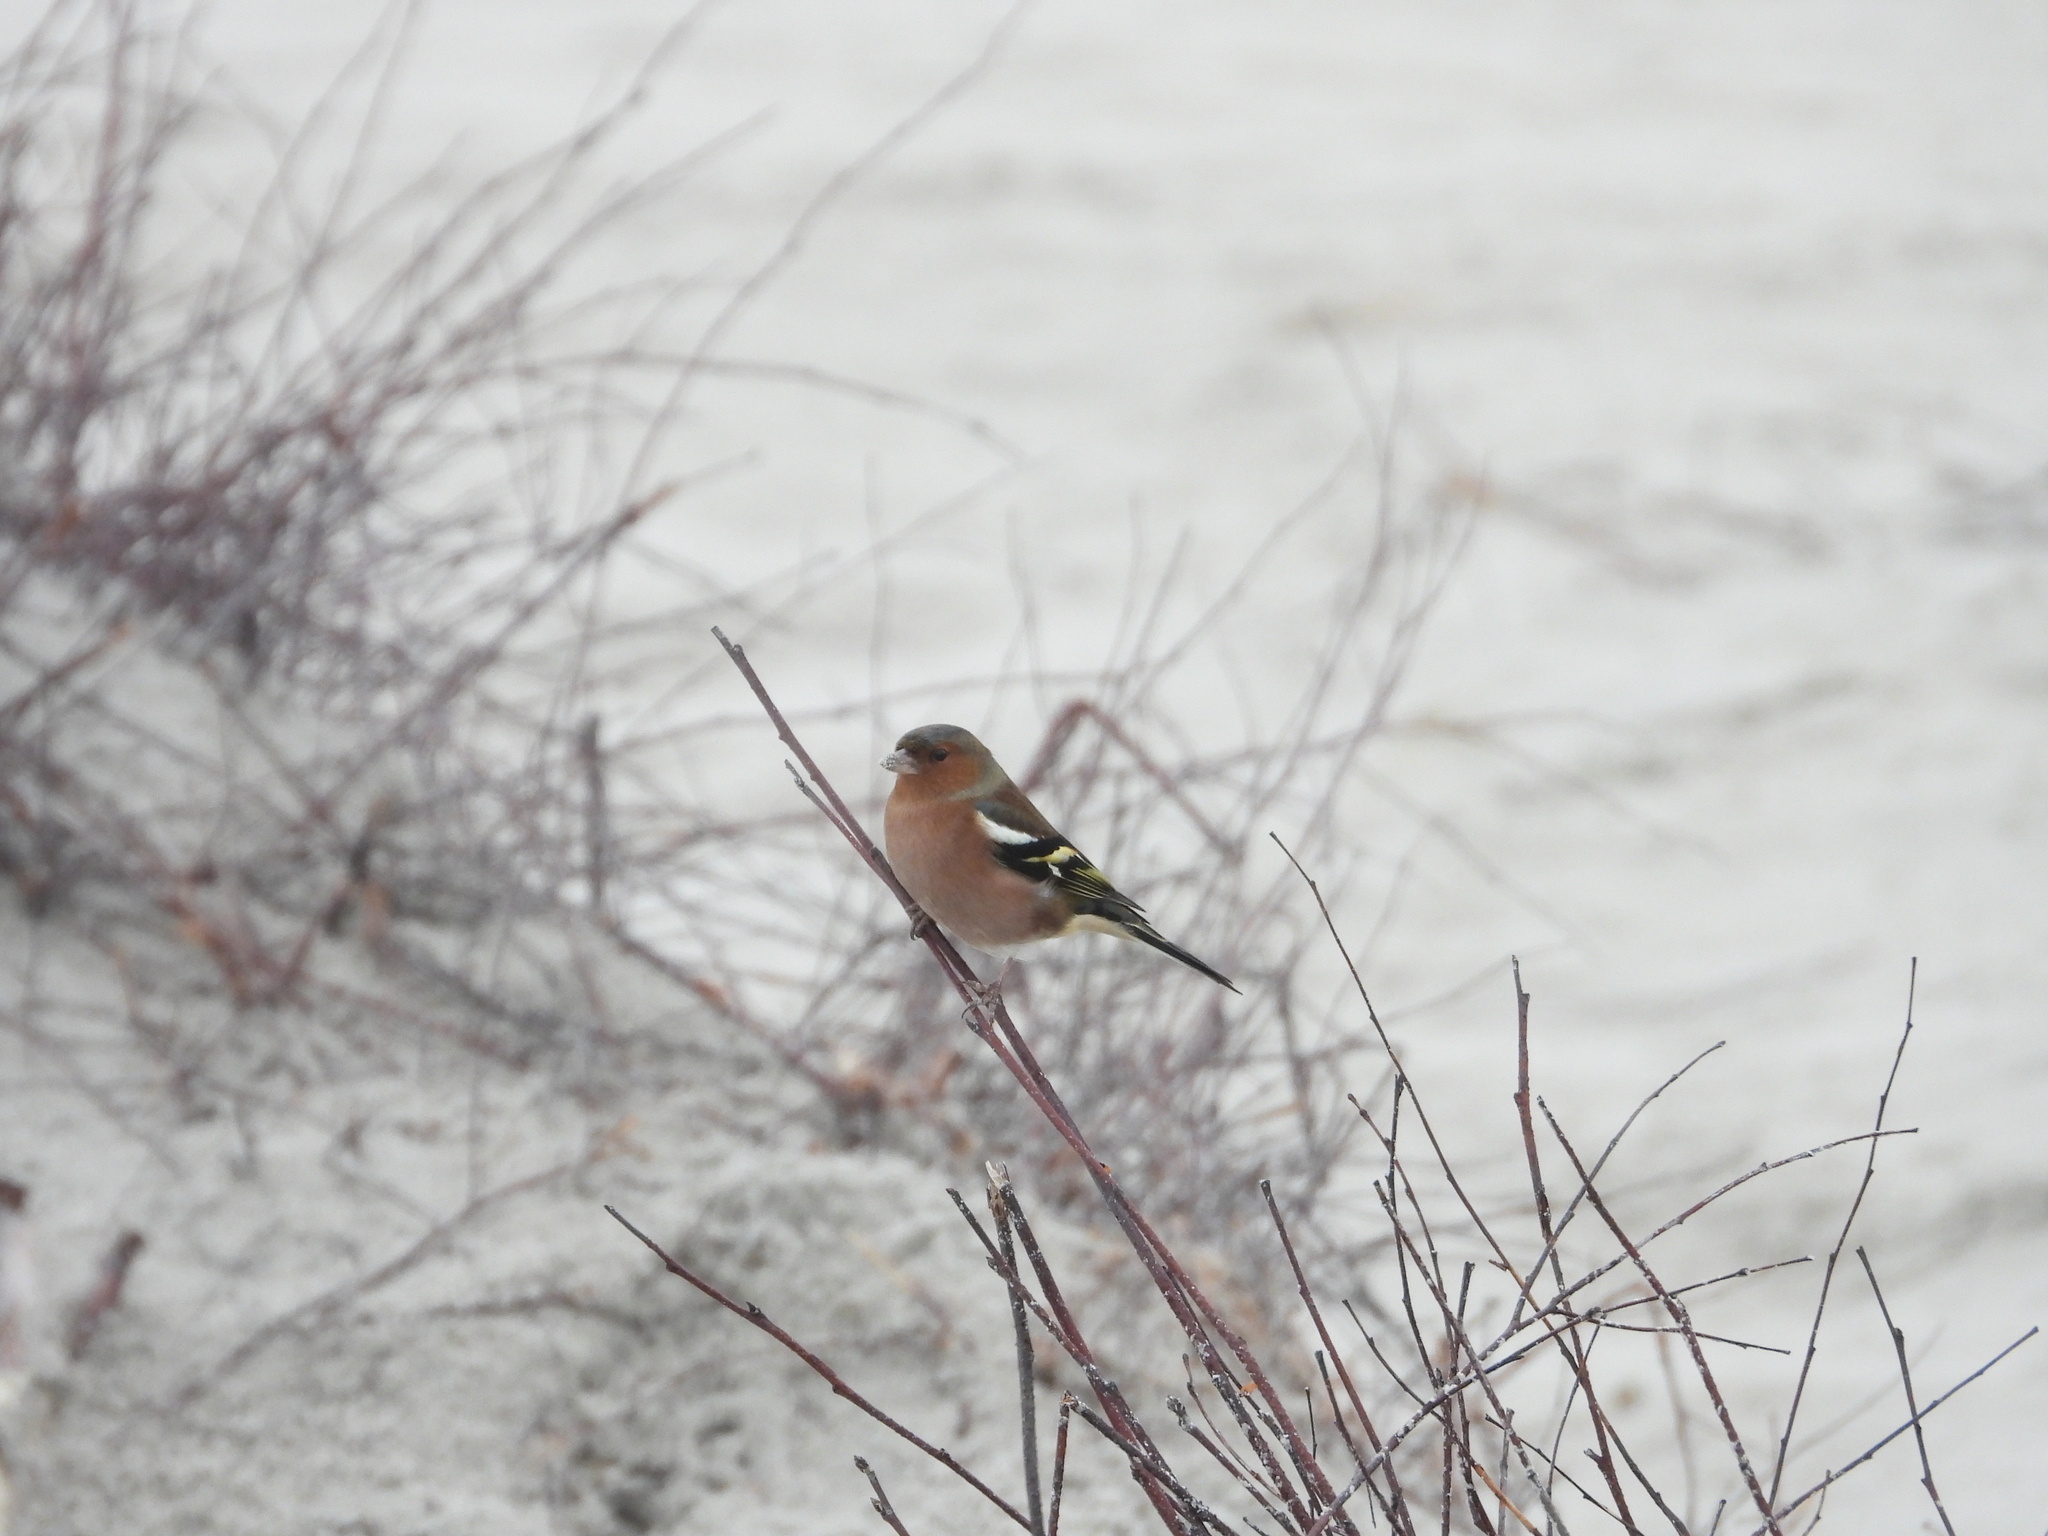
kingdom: Animalia
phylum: Chordata
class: Aves
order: Passeriformes
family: Fringillidae
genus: Fringilla
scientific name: Fringilla coelebs
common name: Common chaffinch
